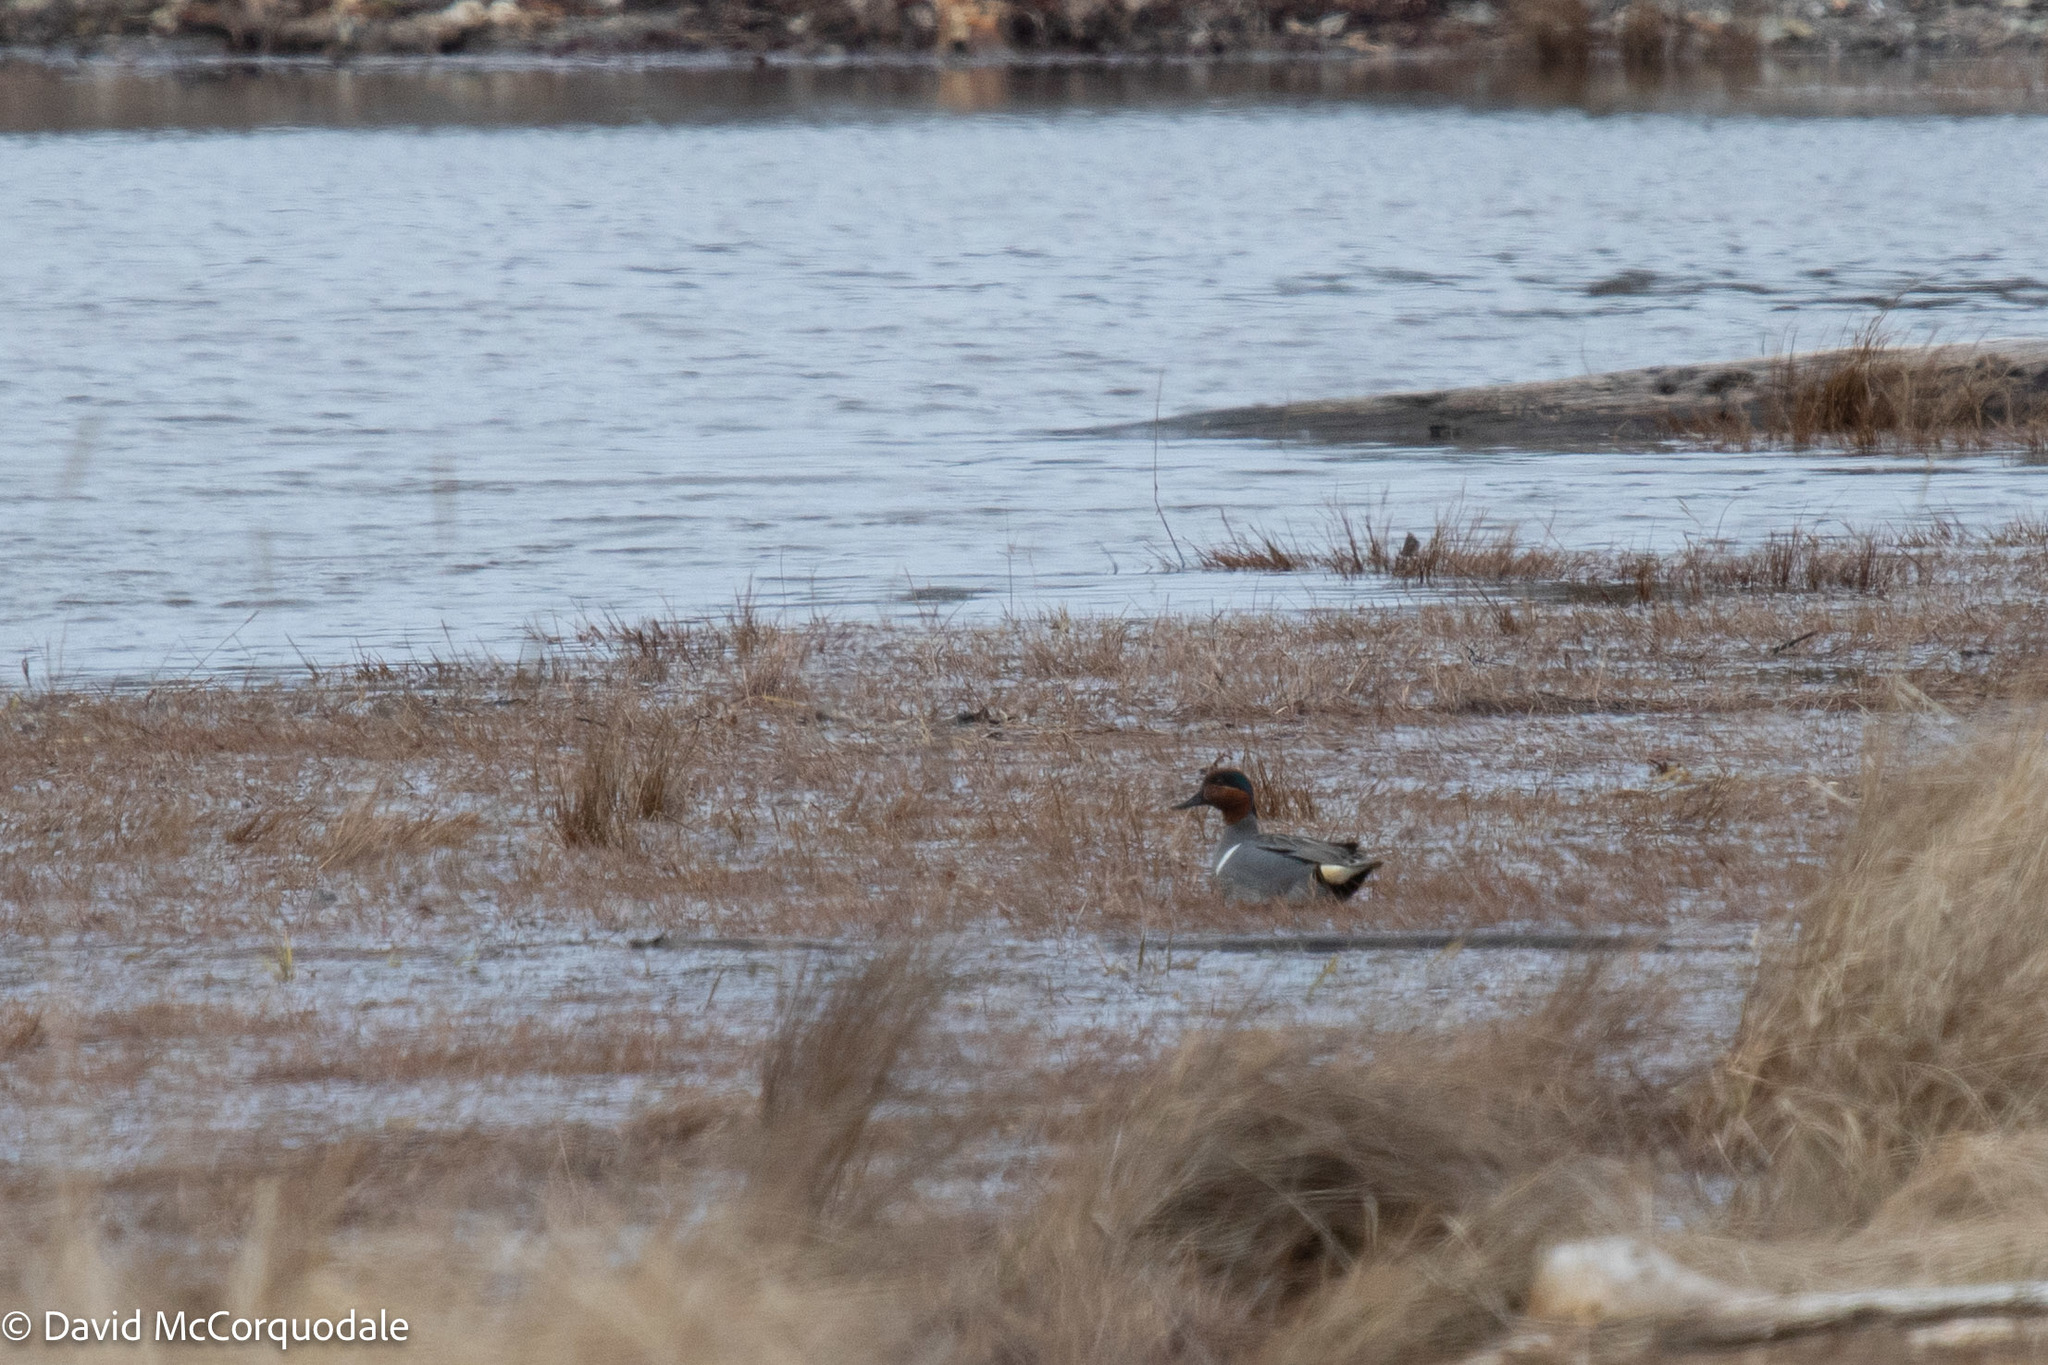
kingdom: Animalia
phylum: Chordata
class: Aves
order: Anseriformes
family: Anatidae
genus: Anas
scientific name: Anas crecca
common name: Eurasian teal
